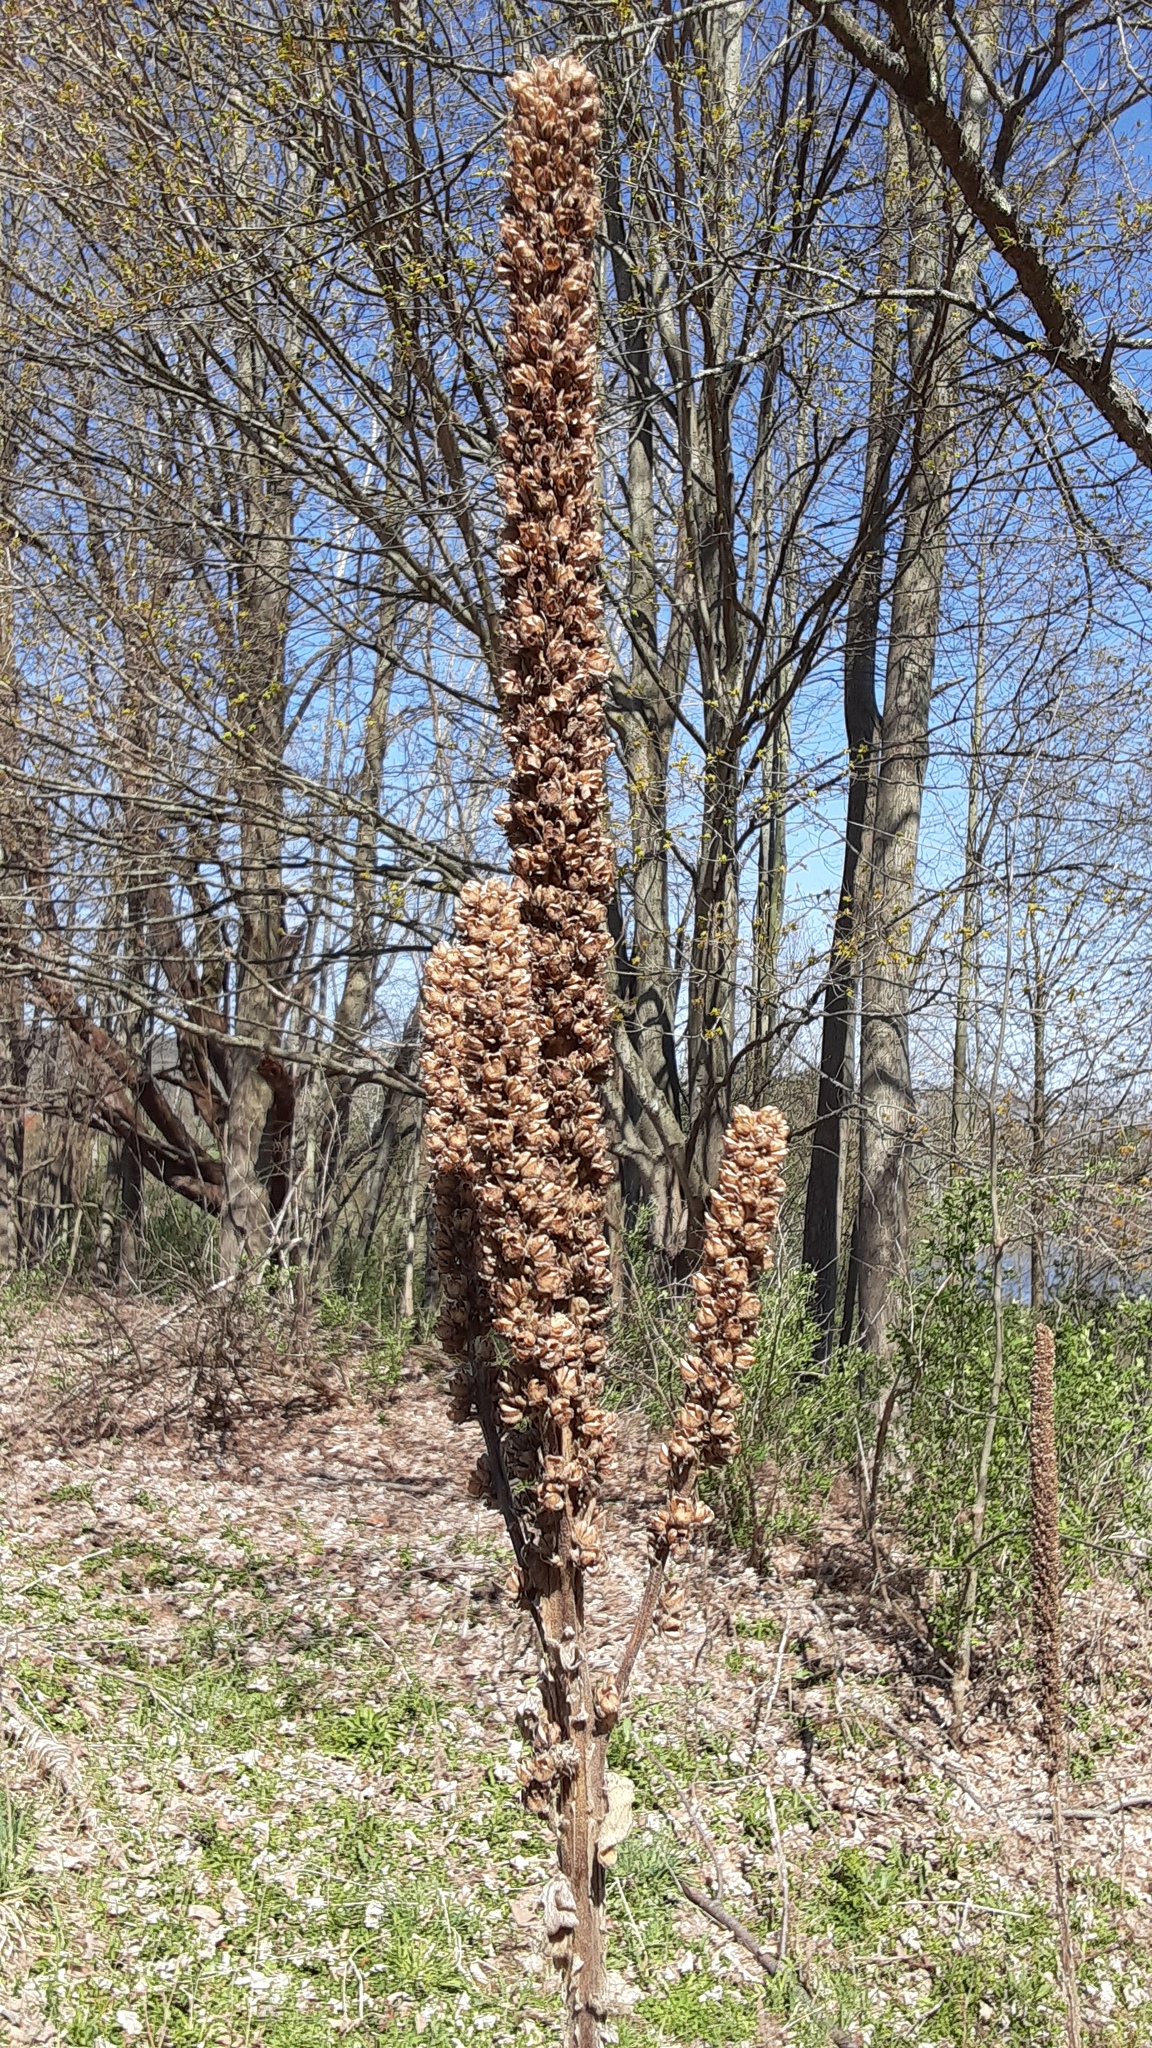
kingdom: Plantae
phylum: Tracheophyta
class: Magnoliopsida
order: Lamiales
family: Scrophulariaceae
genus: Verbascum
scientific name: Verbascum thapsus
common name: Common mullein
